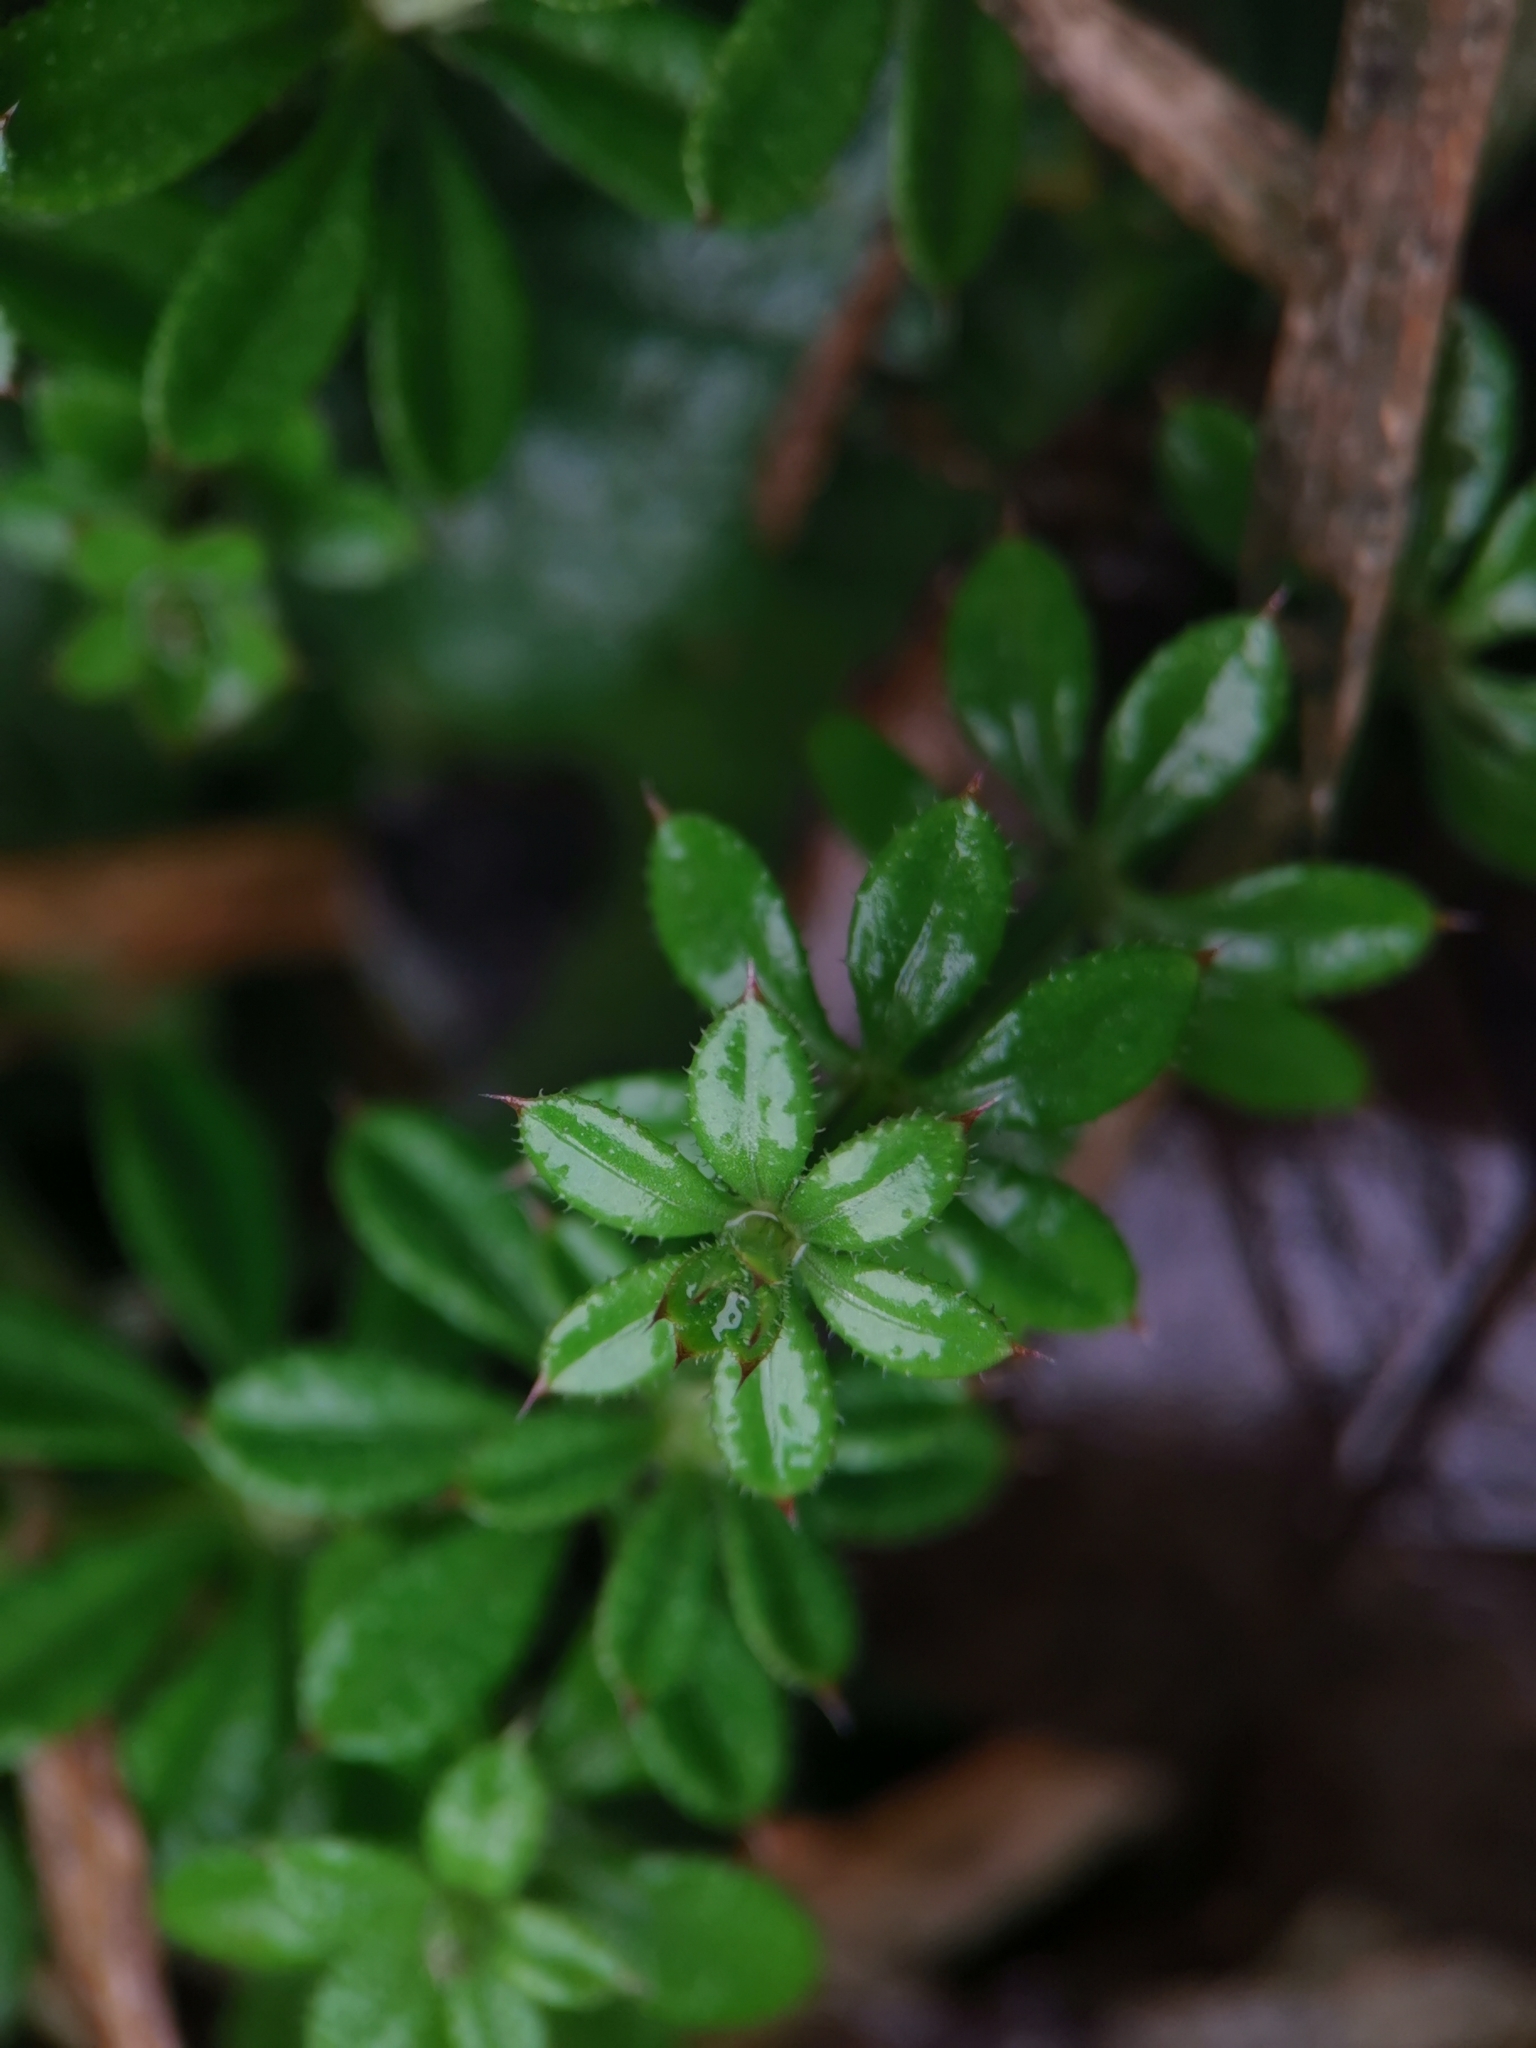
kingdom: Plantae
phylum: Tracheophyta
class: Magnoliopsida
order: Gentianales
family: Rubiaceae
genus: Galium
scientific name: Galium aparine
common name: Cleavers
